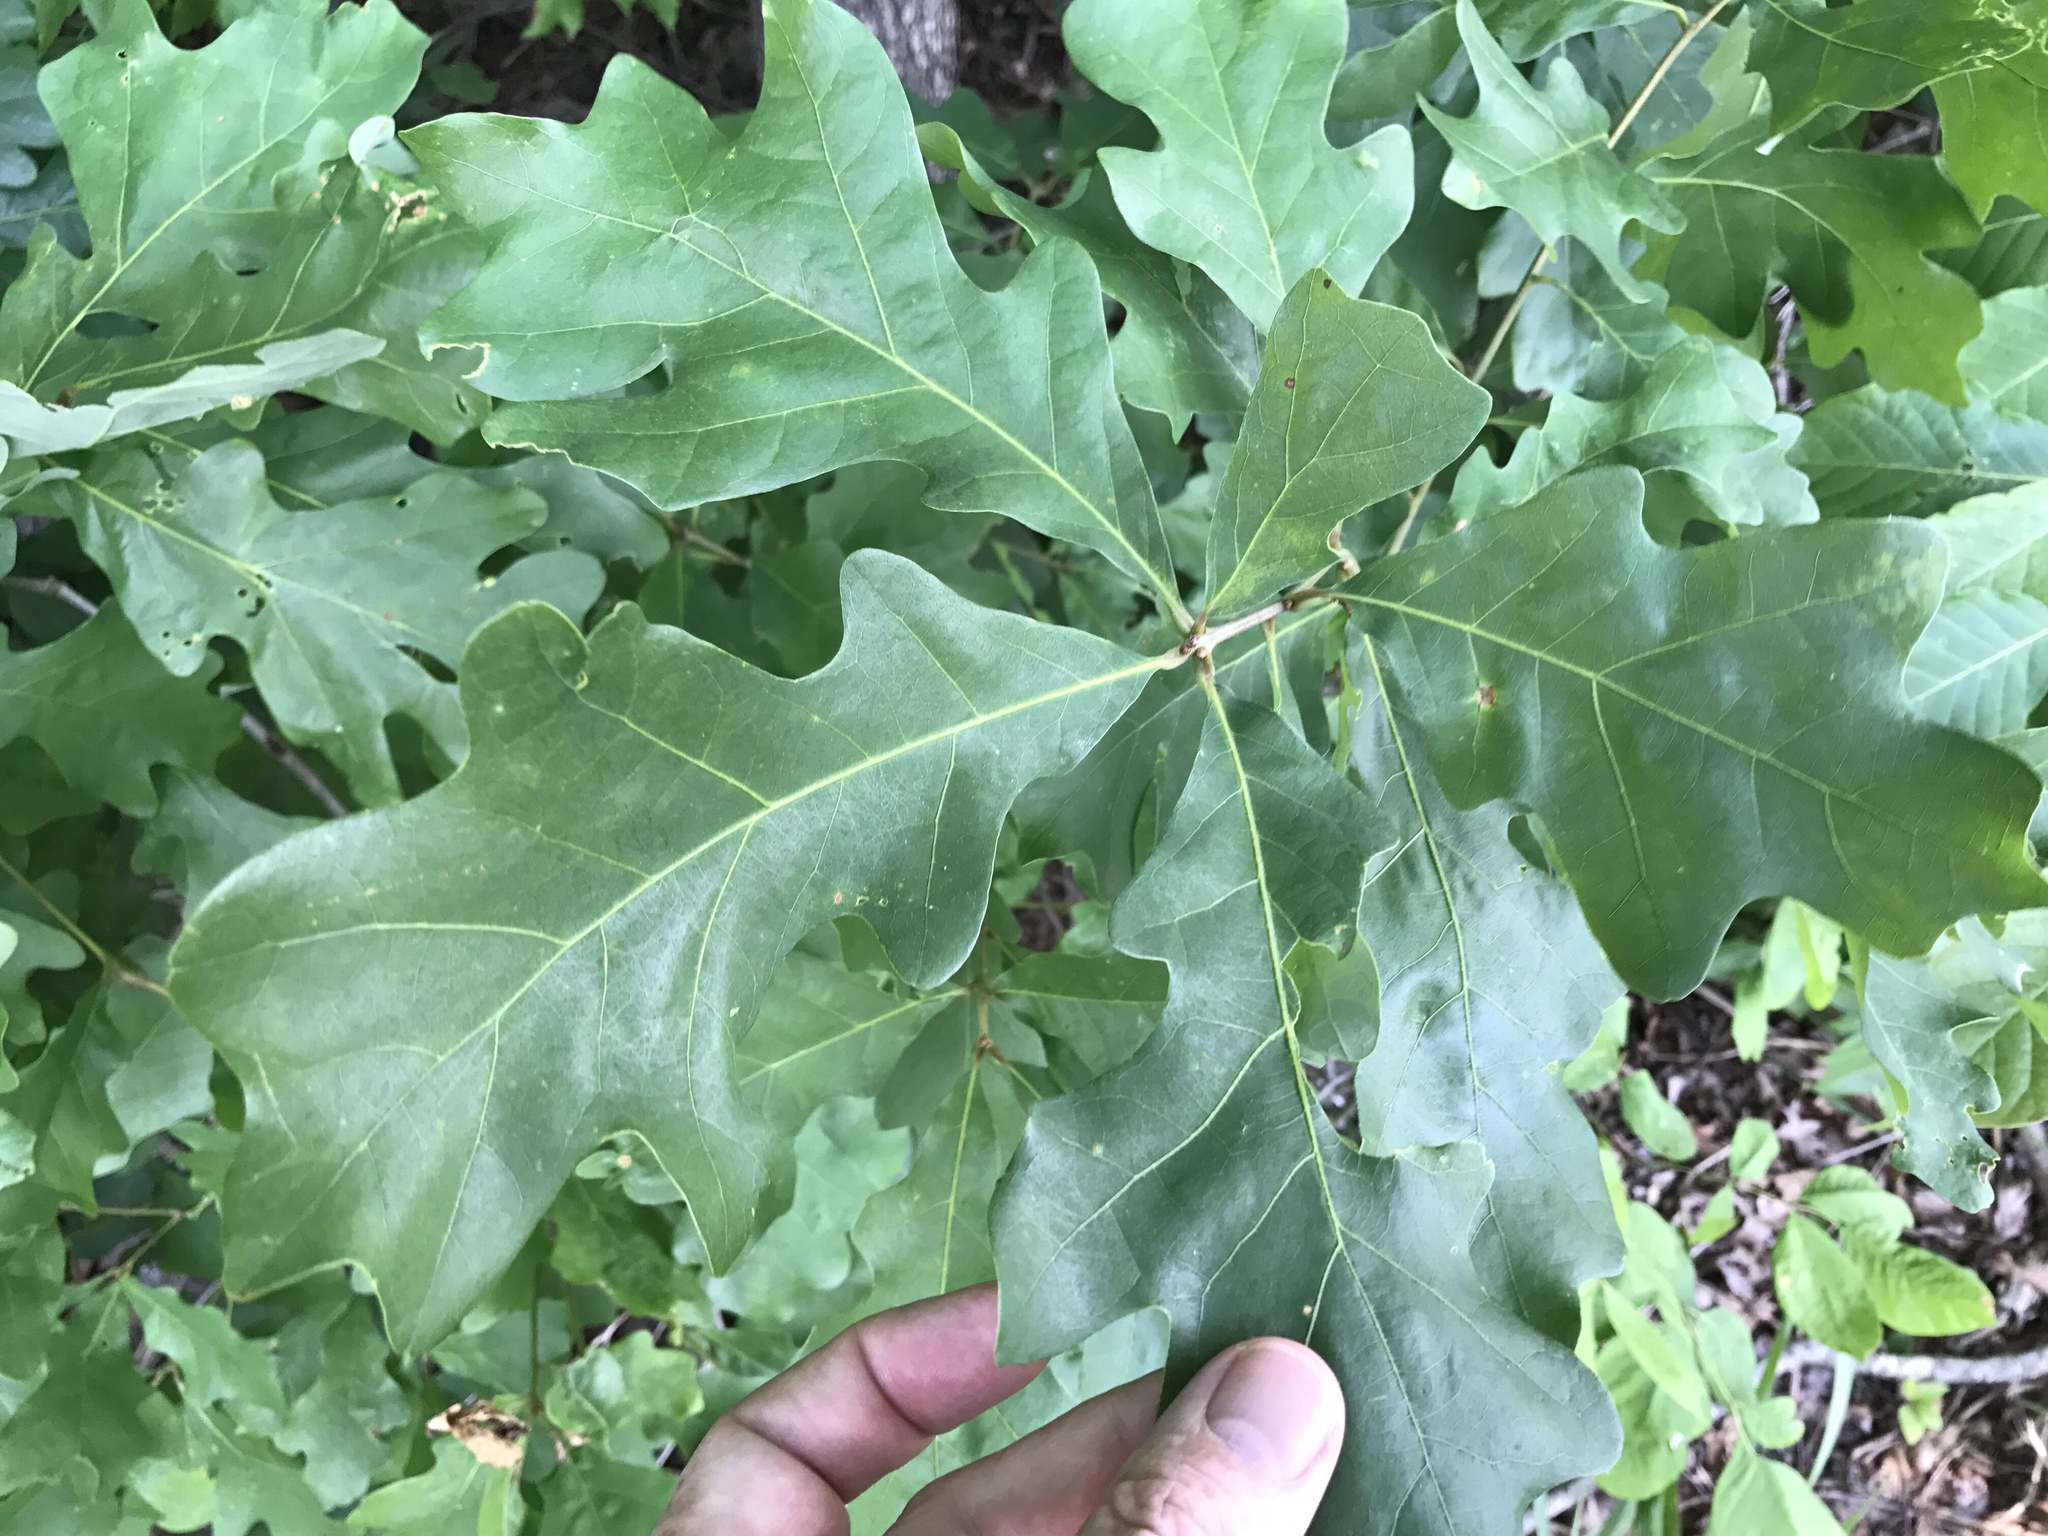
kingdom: Plantae
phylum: Tracheophyta
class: Magnoliopsida
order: Fagales
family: Fagaceae
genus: Quercus
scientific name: Quercus alba
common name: White oak
